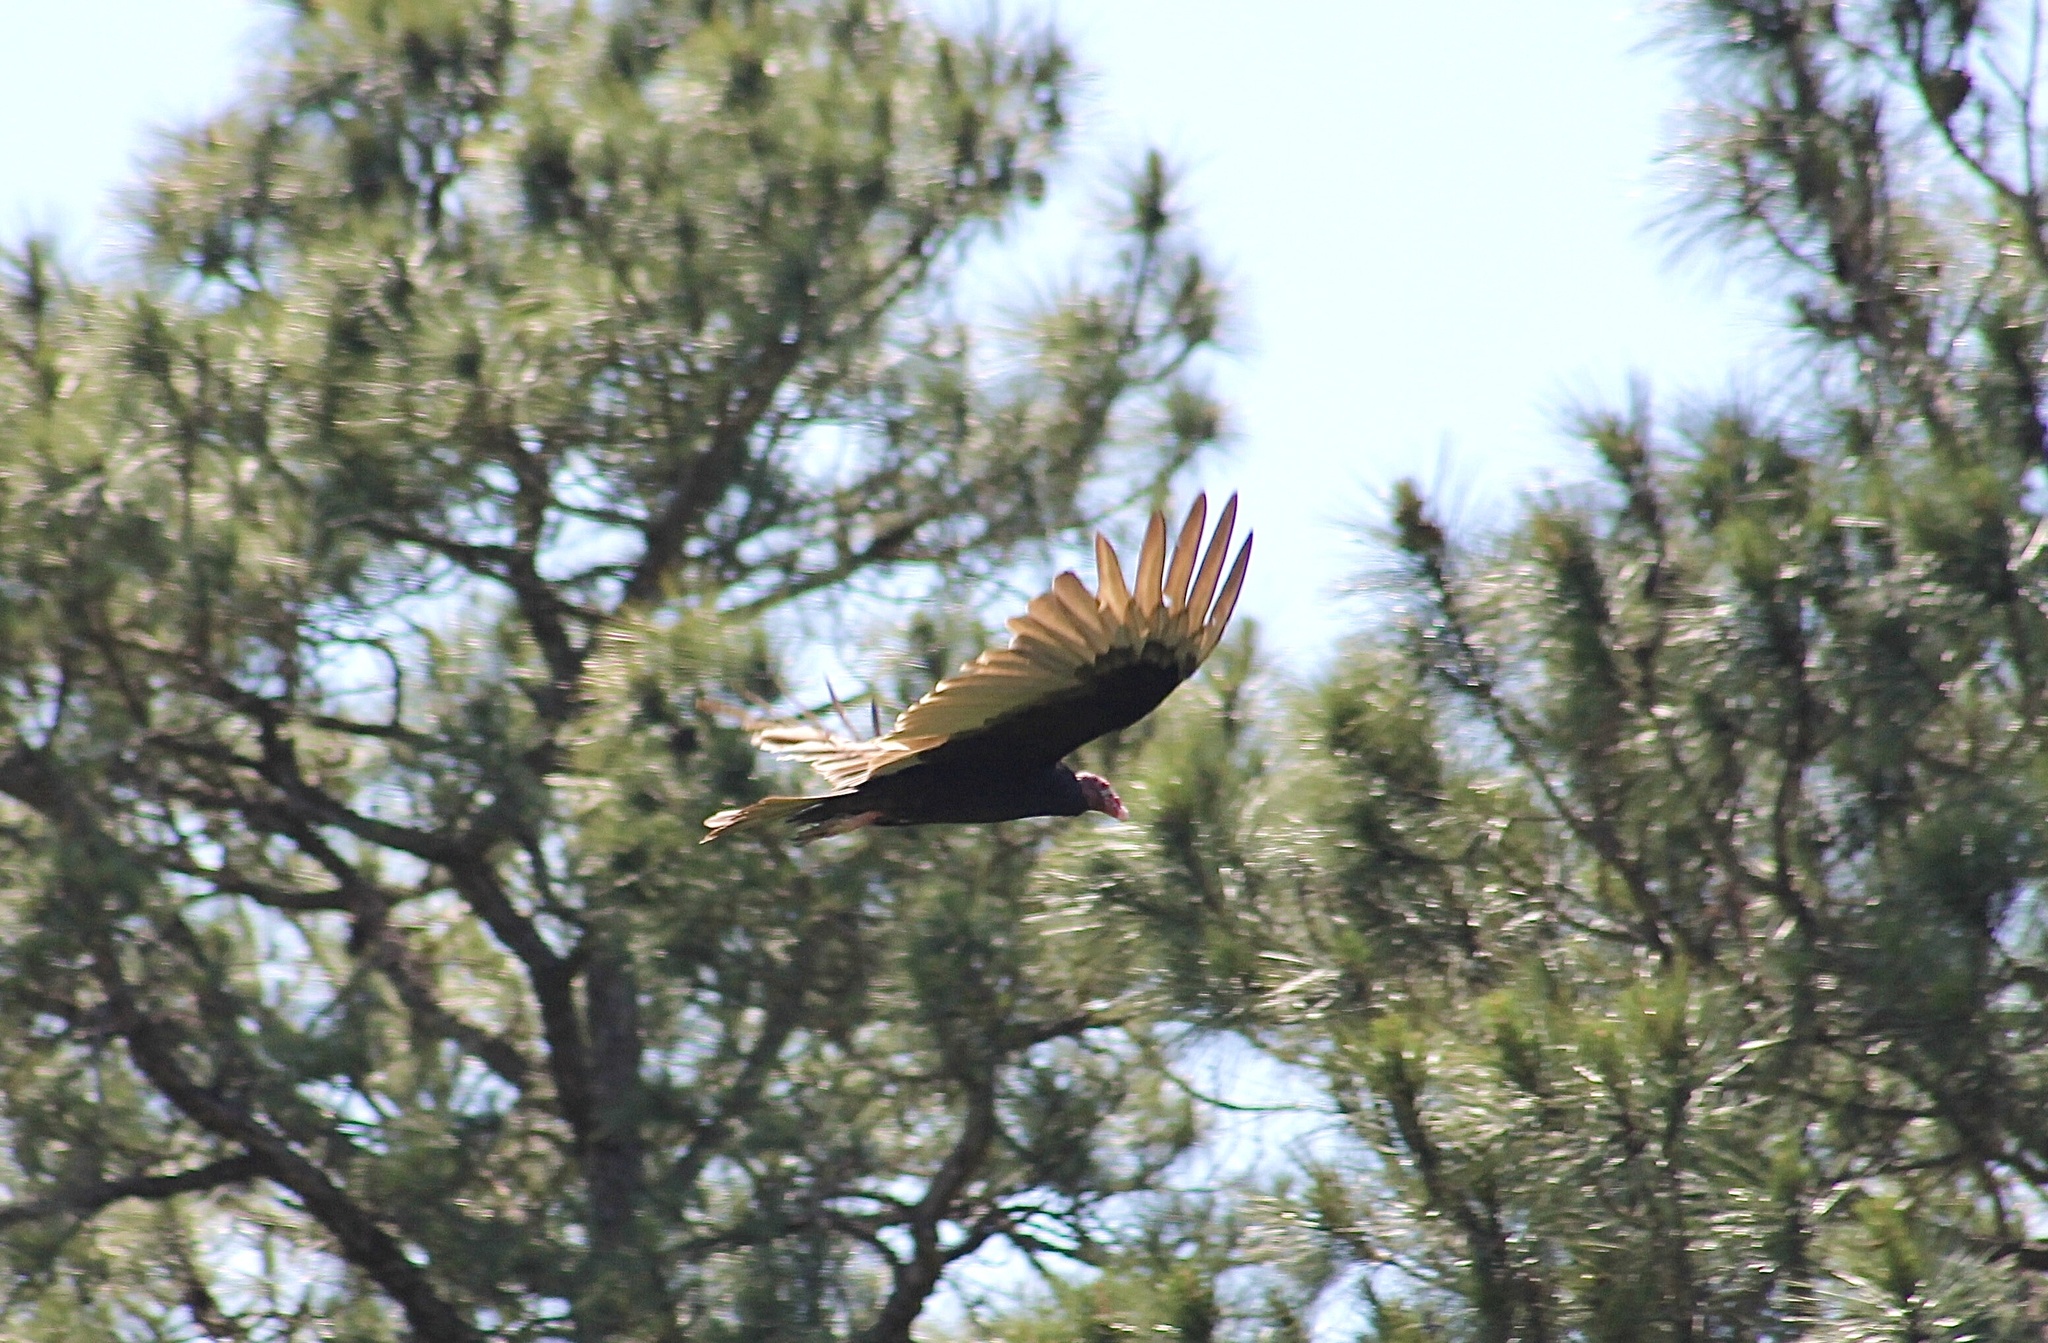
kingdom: Animalia
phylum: Chordata
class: Aves
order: Accipitriformes
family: Cathartidae
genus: Cathartes
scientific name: Cathartes aura
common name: Turkey vulture
